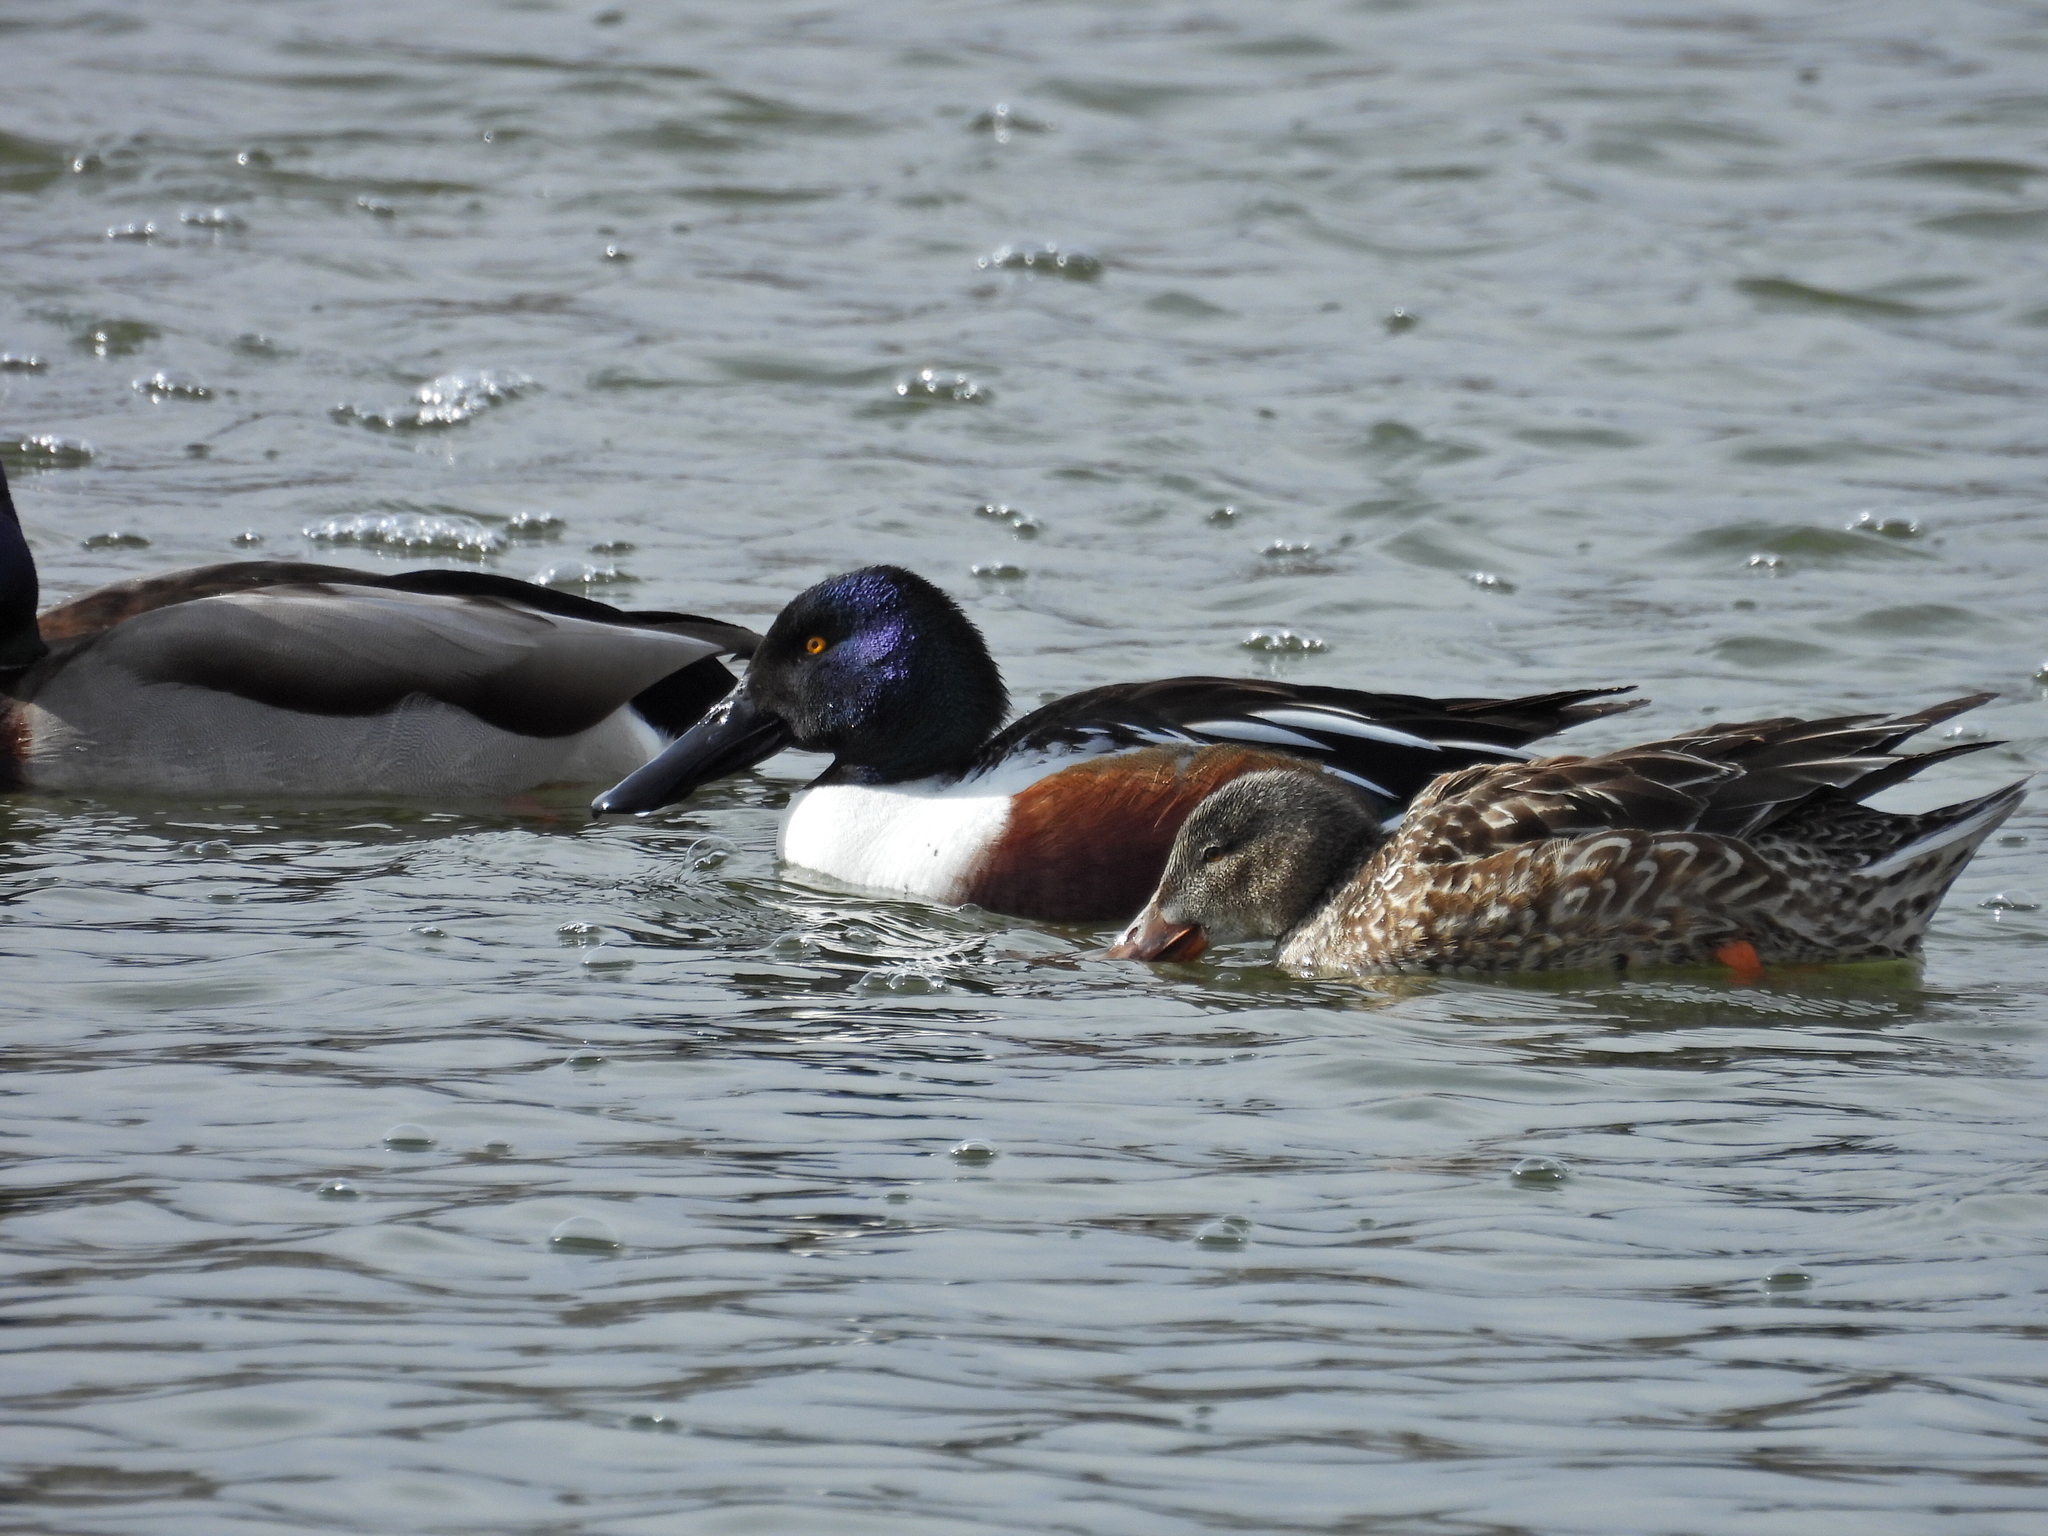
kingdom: Animalia
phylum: Chordata
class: Aves
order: Anseriformes
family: Anatidae
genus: Spatula
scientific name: Spatula clypeata
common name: Northern shoveler
